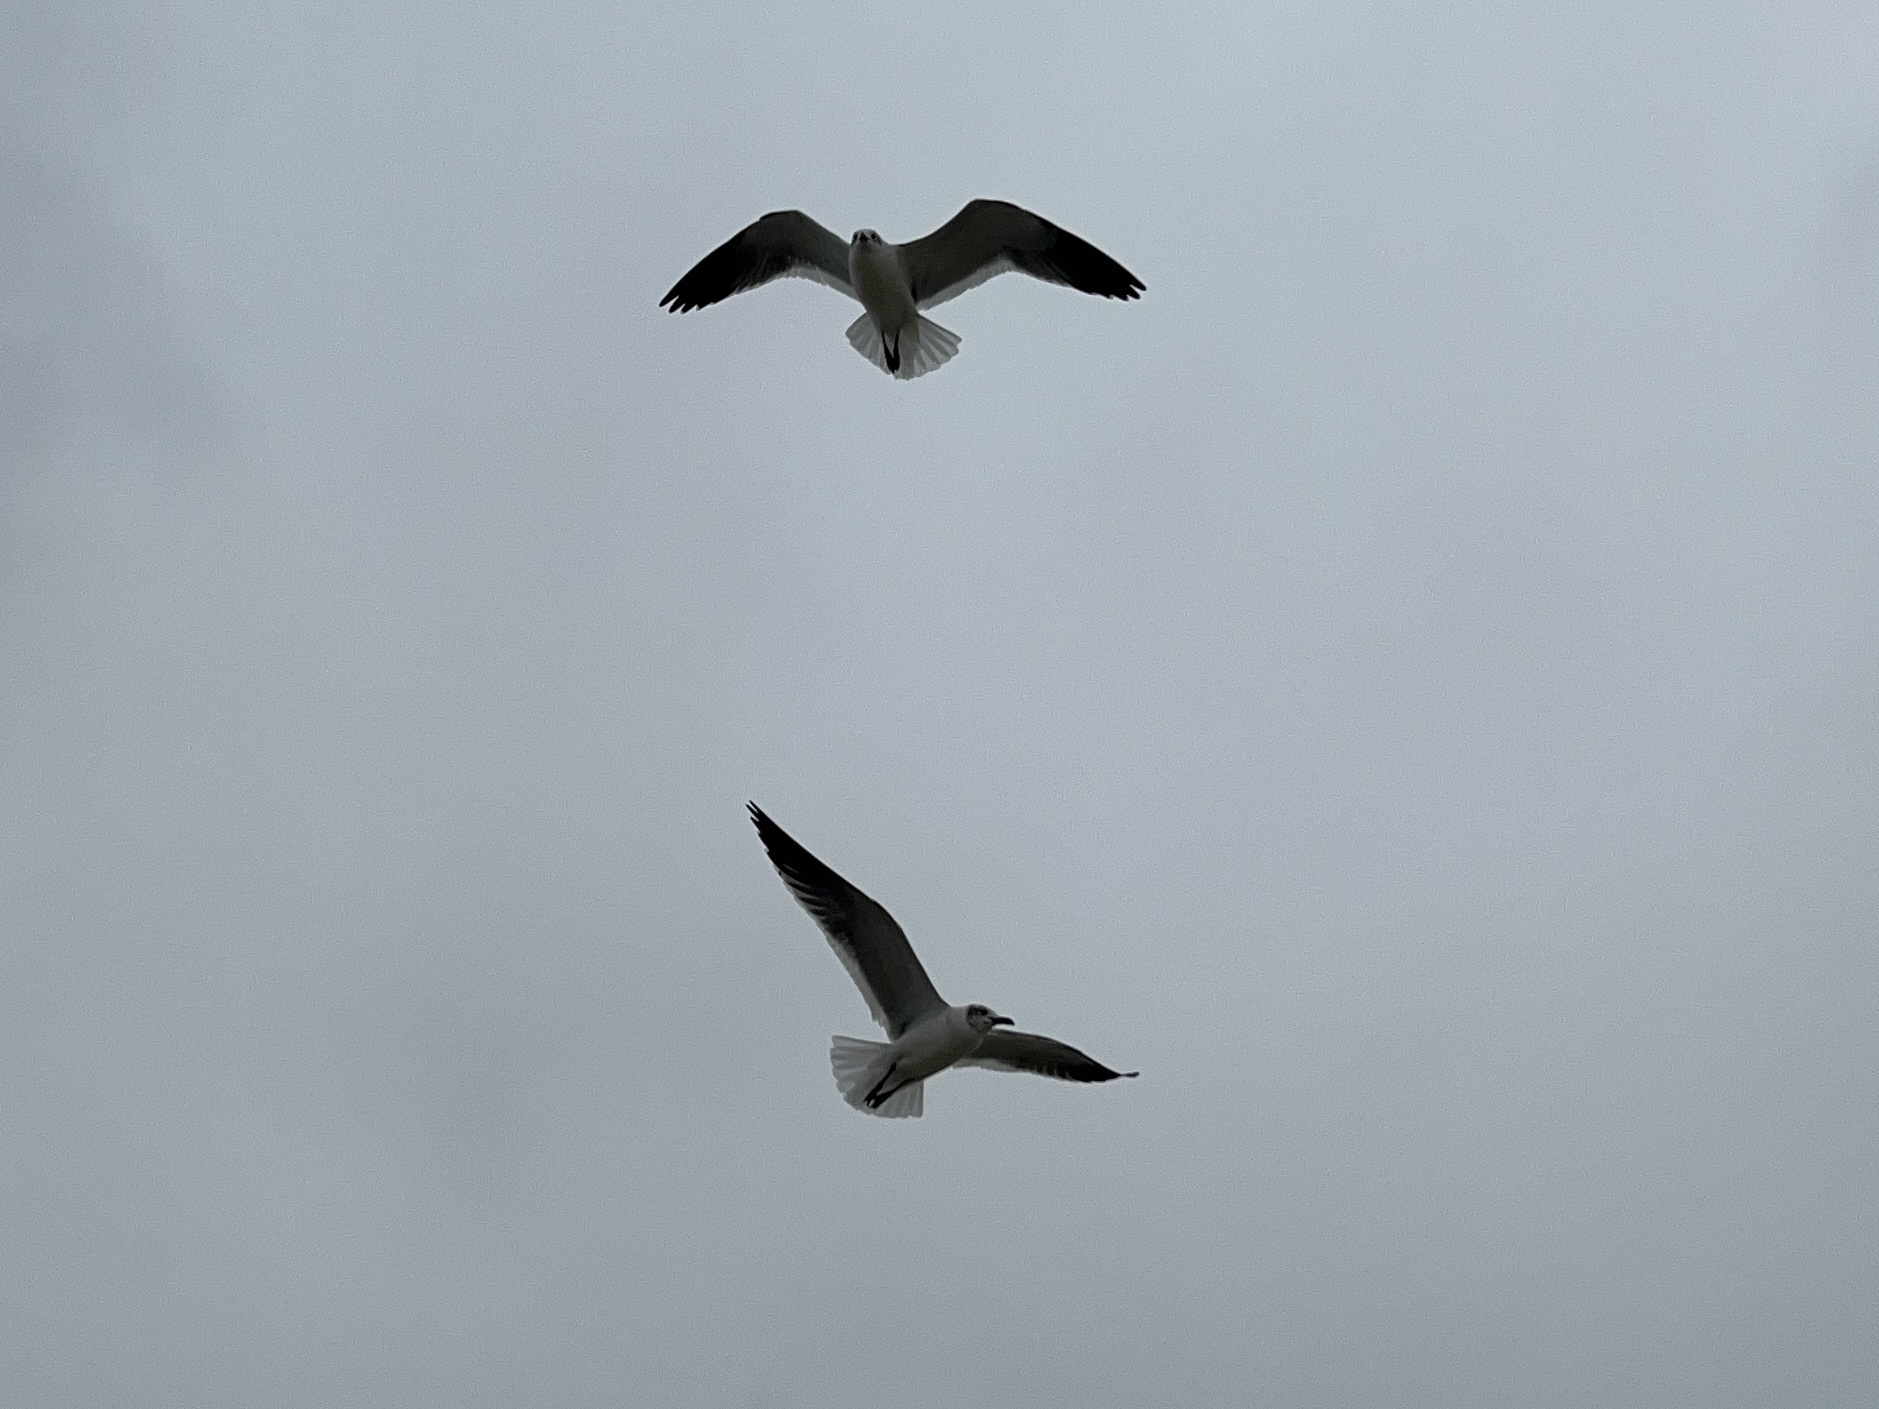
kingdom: Animalia
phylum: Chordata
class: Aves
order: Charadriiformes
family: Laridae
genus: Leucophaeus
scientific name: Leucophaeus atricilla
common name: Laughing gull
